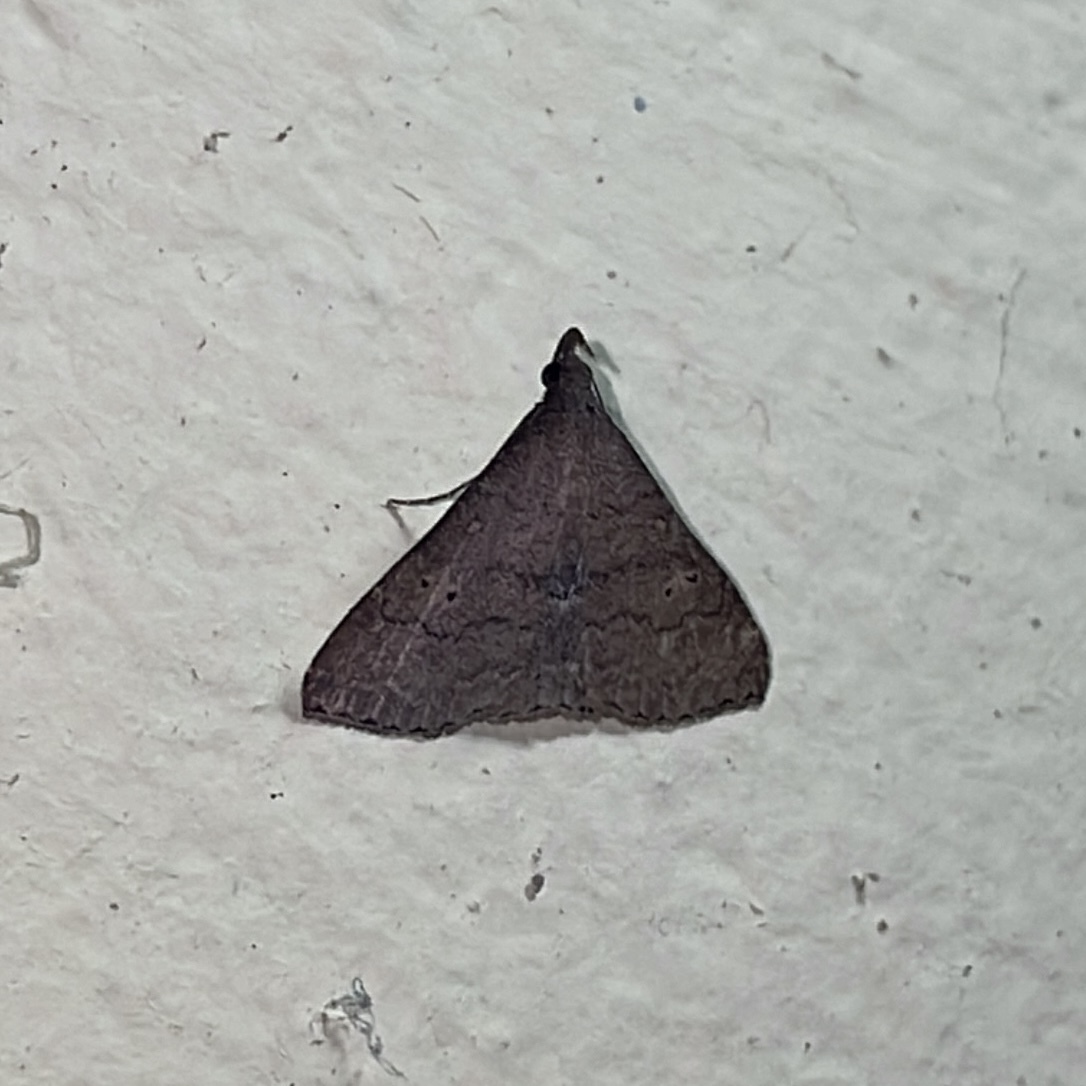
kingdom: Animalia
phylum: Arthropoda
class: Insecta
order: Lepidoptera
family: Erebidae
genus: Physula
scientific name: Physula migralis
